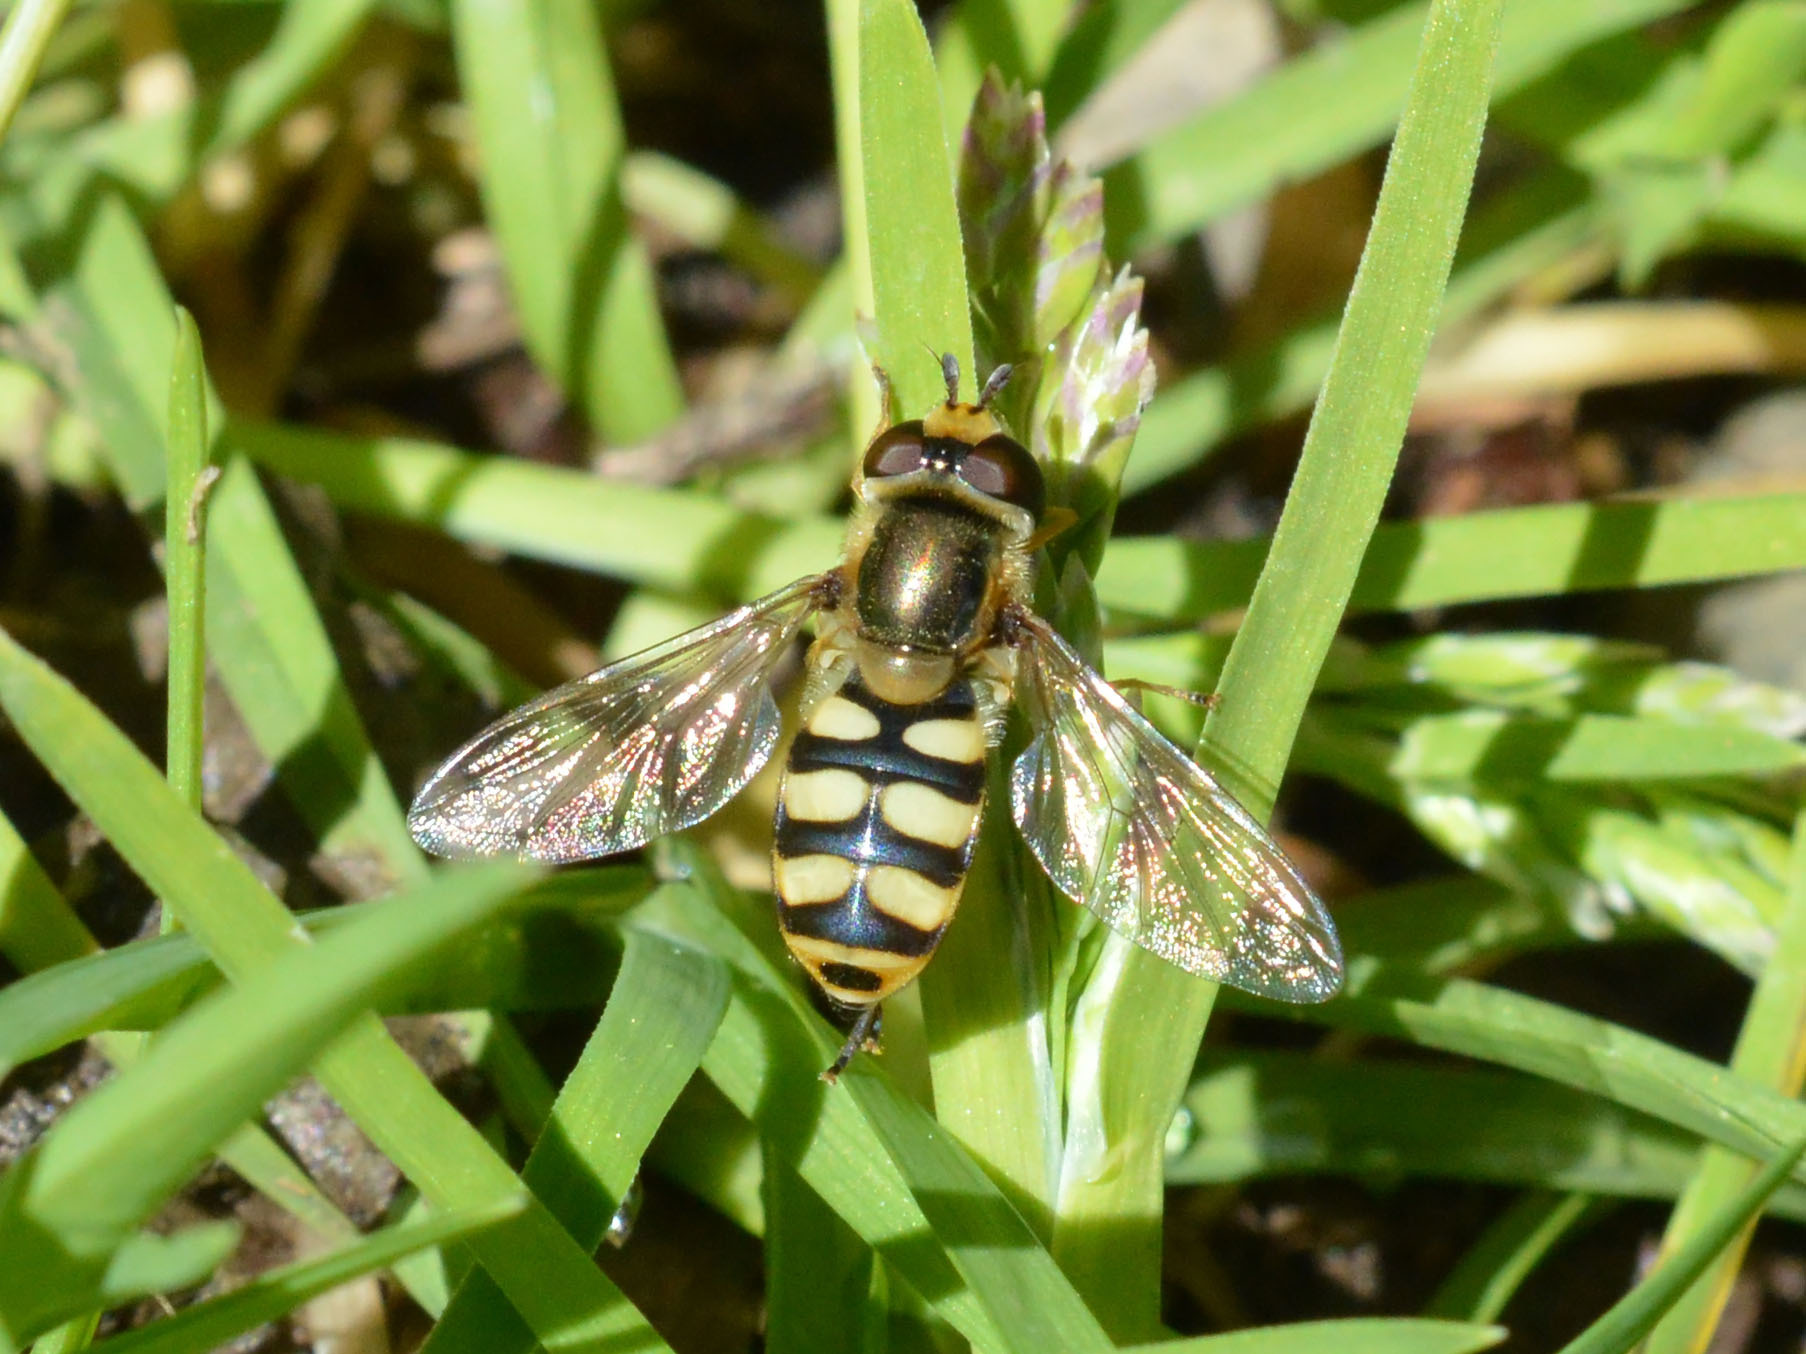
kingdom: Animalia
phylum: Arthropoda
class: Insecta
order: Diptera
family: Syrphidae
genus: Eupeodes
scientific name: Eupeodes corollae
